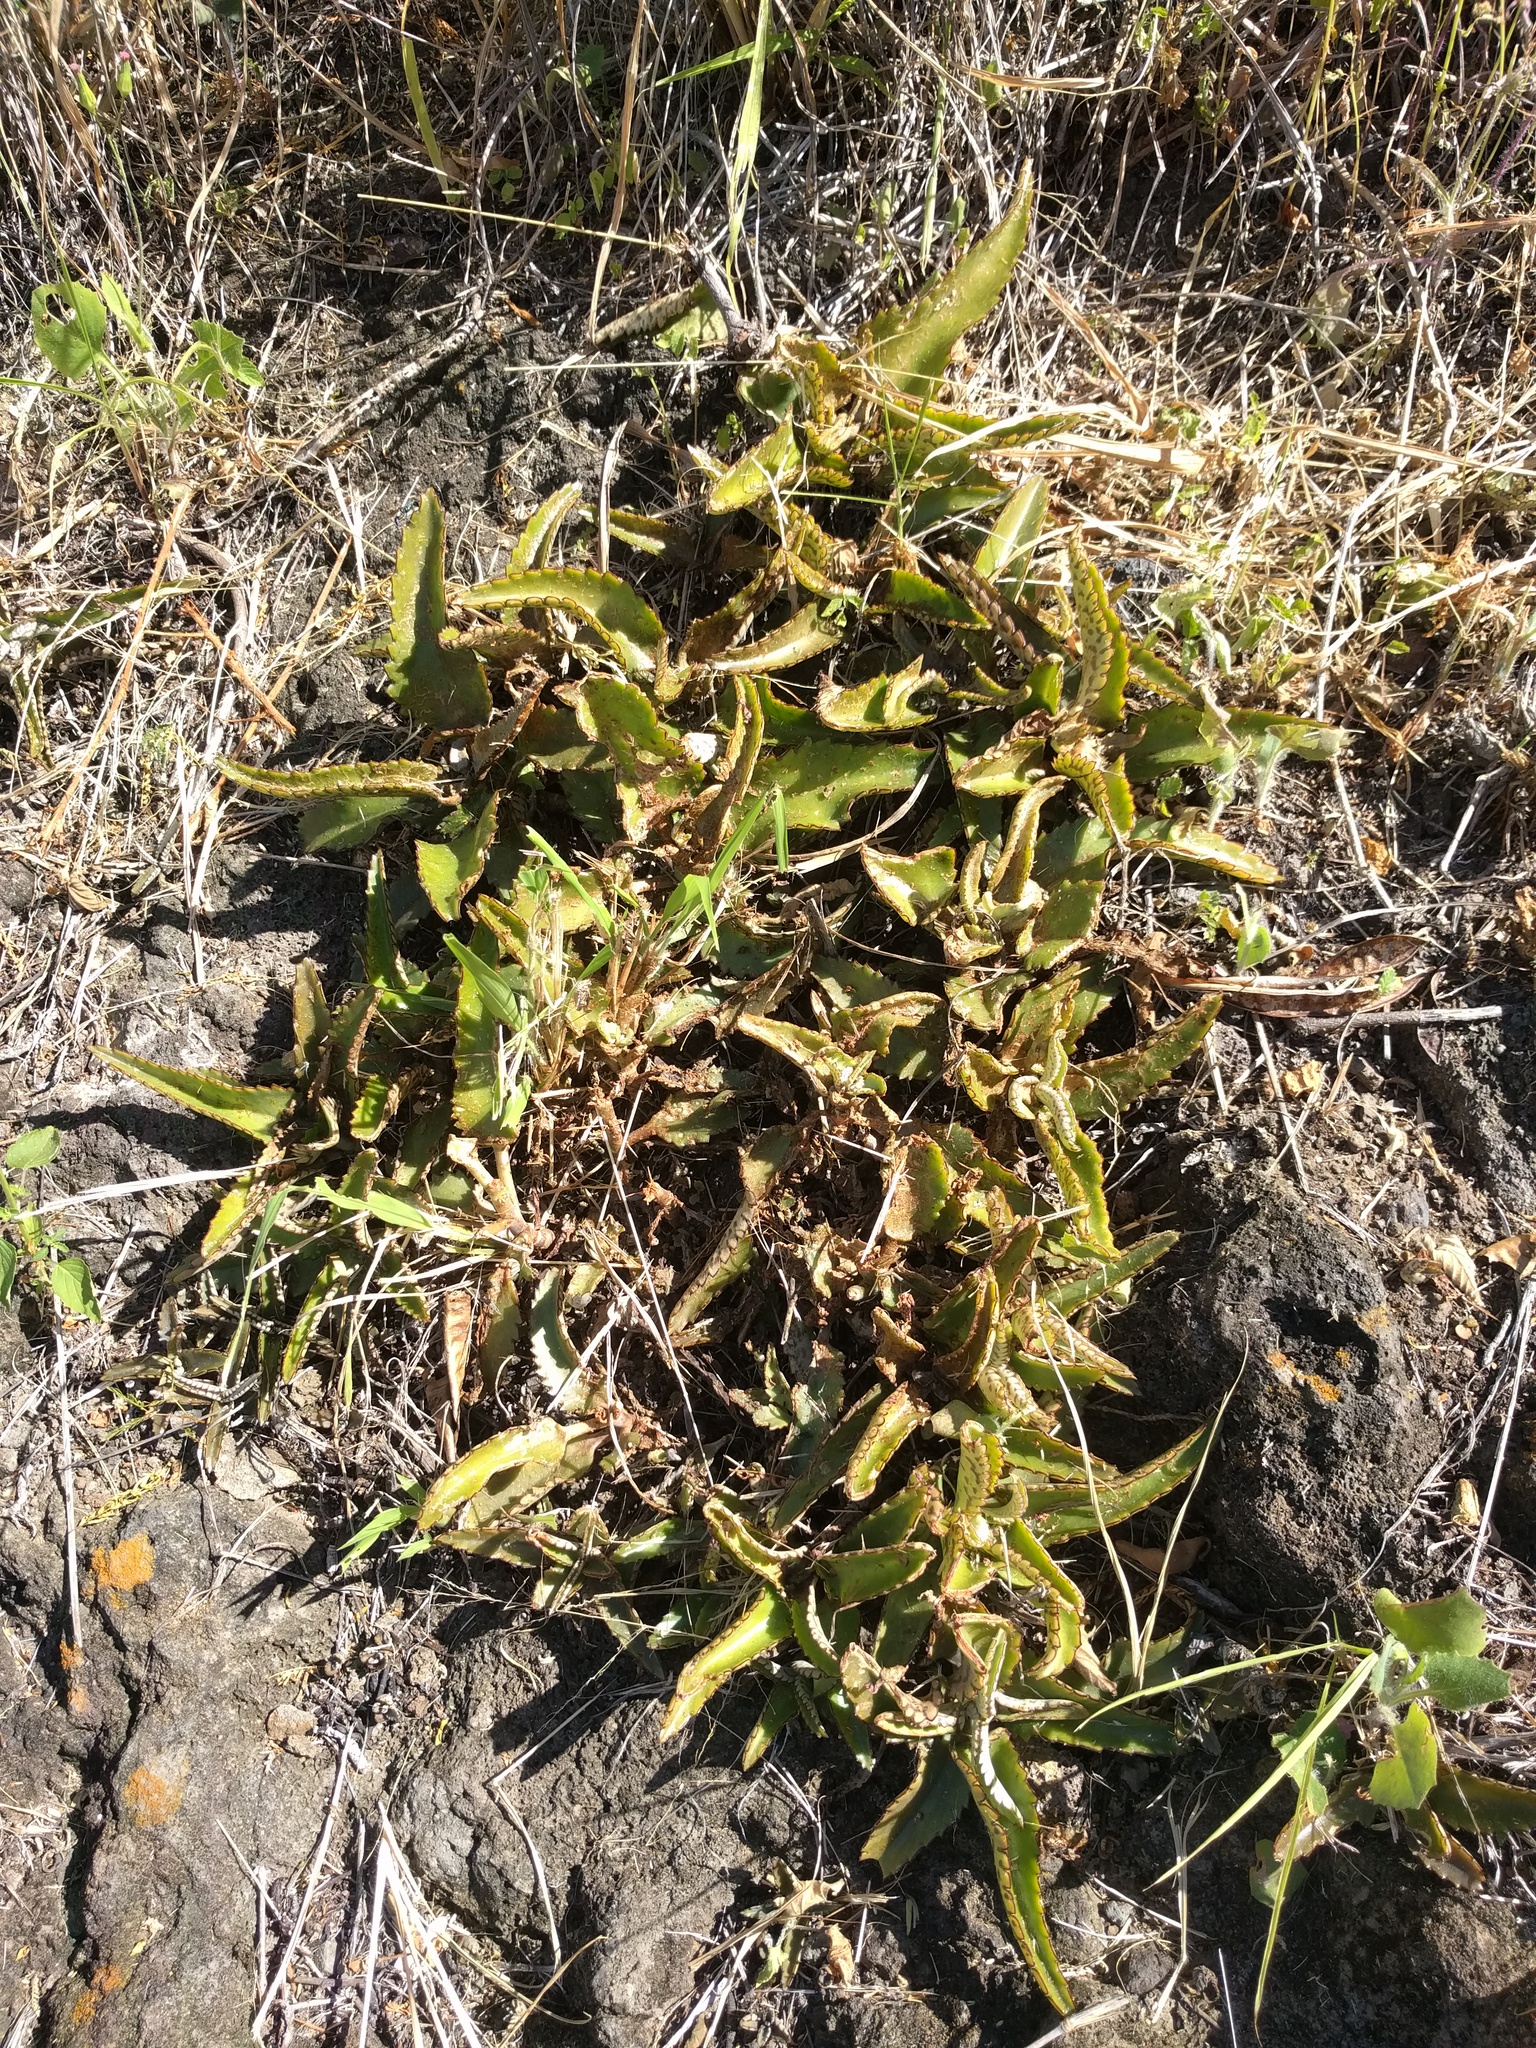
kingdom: Plantae
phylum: Tracheophyta
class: Magnoliopsida
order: Saxifragales
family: Crassulaceae
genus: Kalanchoe
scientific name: Kalanchoe daigremontiana
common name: Devil's backbone
